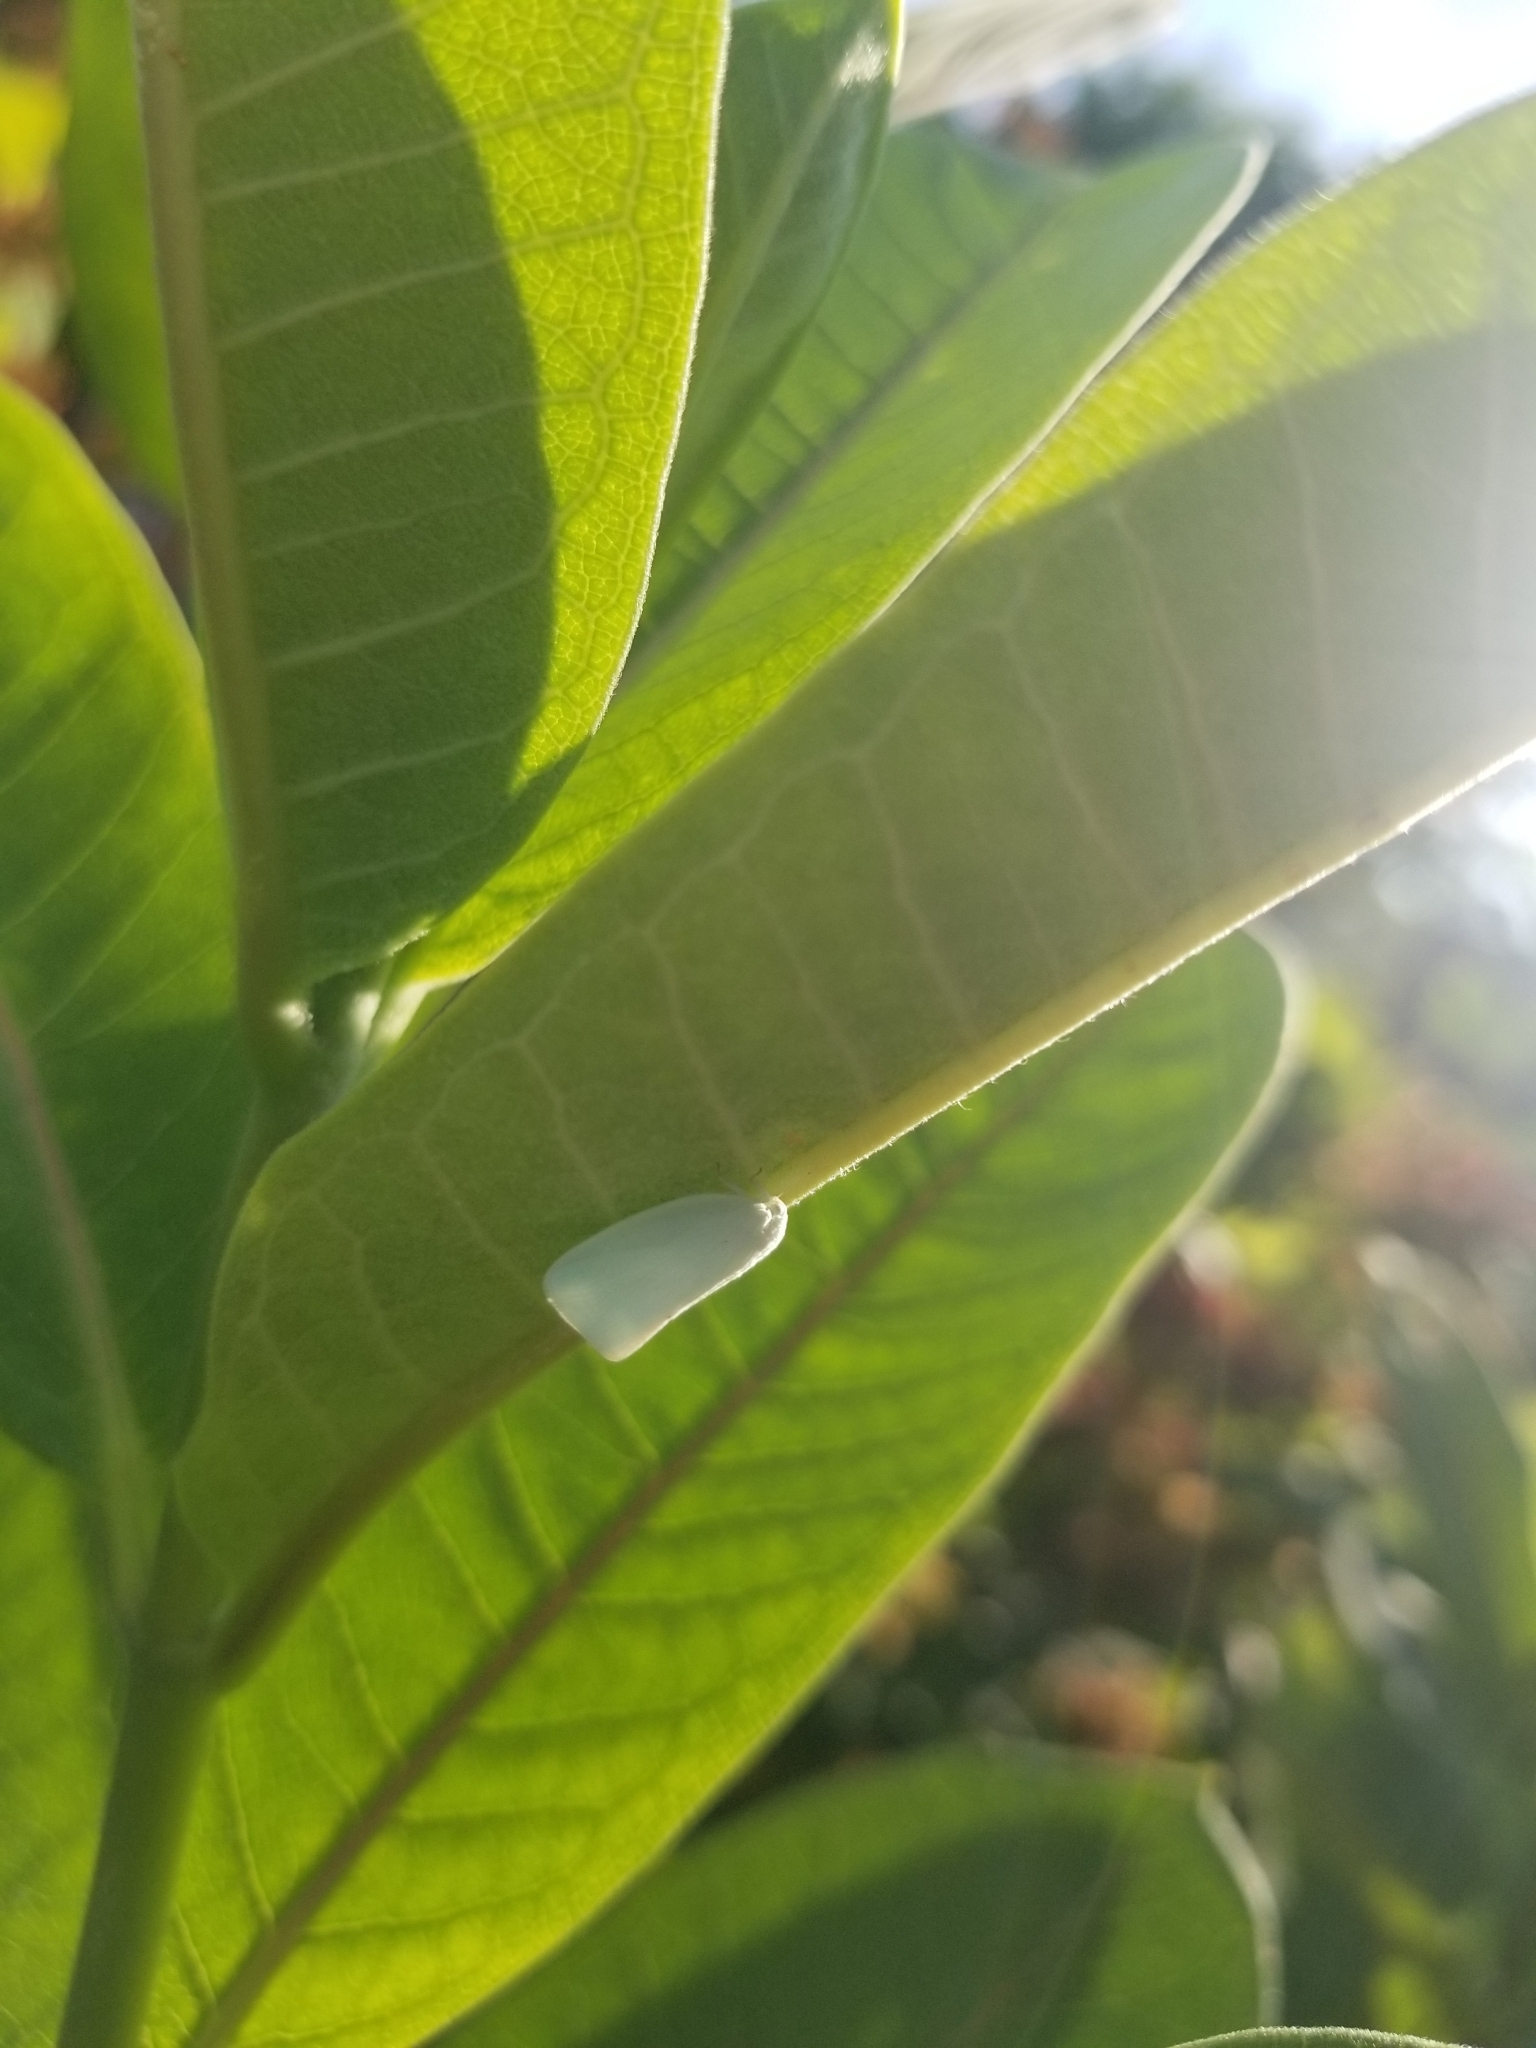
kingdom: Animalia
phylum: Arthropoda
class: Insecta
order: Hemiptera
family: Flatidae
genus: Flatormenis
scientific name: Flatormenis proxima
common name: Northern flatid planthopper
